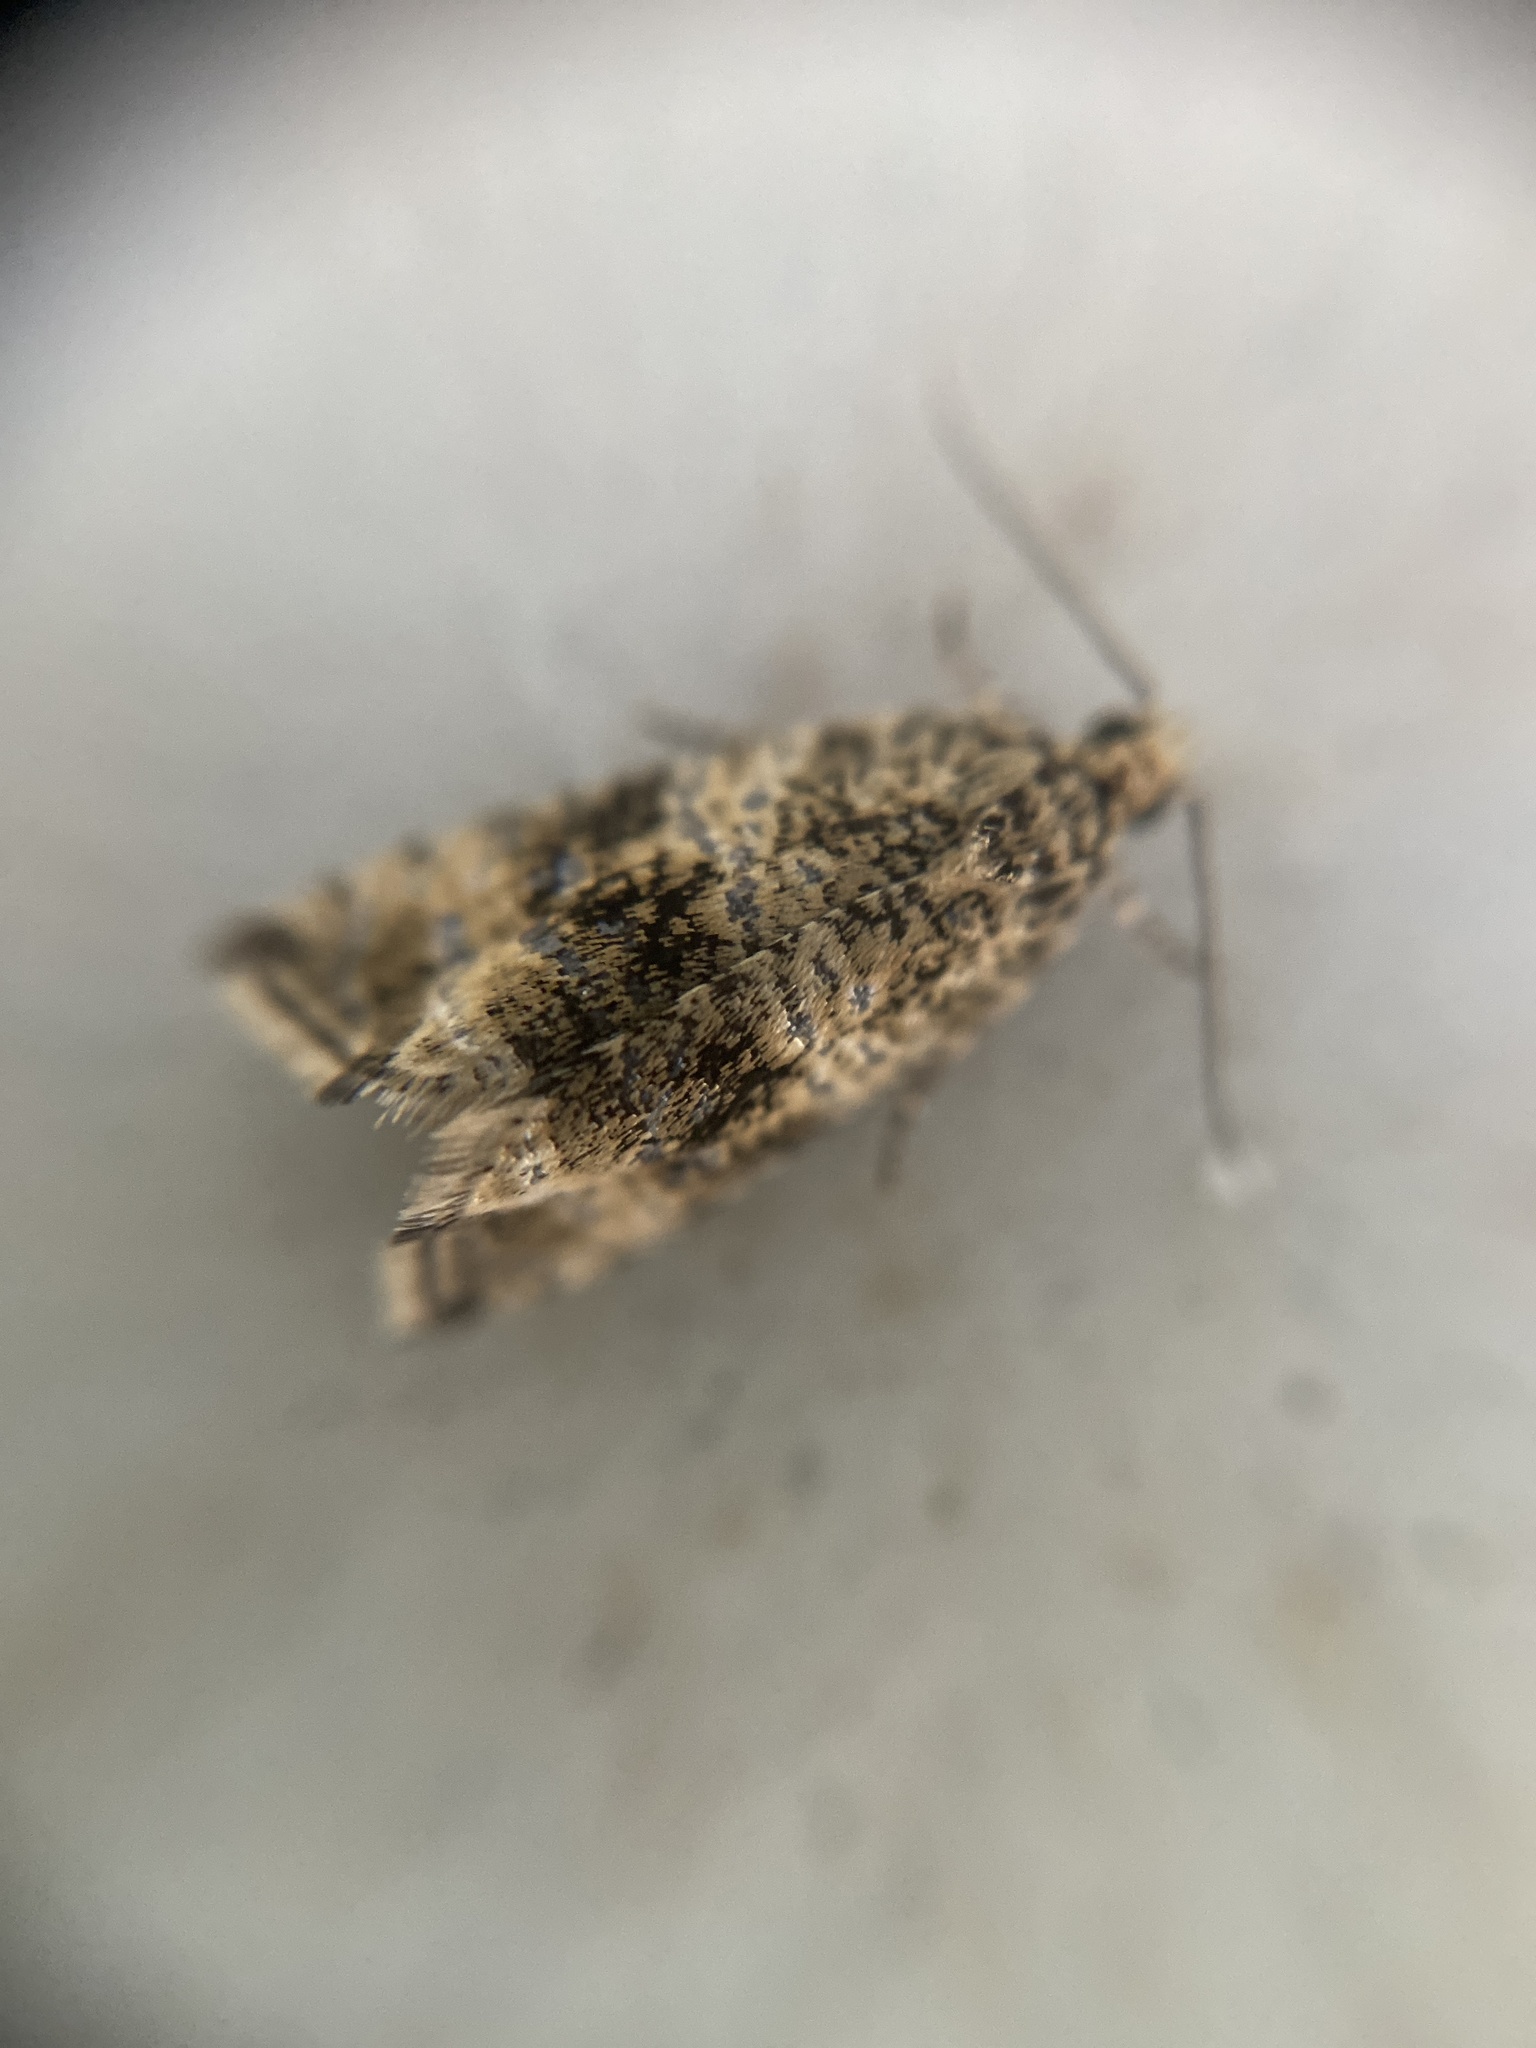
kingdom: Animalia
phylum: Arthropoda
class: Insecta
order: Lepidoptera
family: Tortricidae
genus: Syricoris
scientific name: Syricoris lacunana
